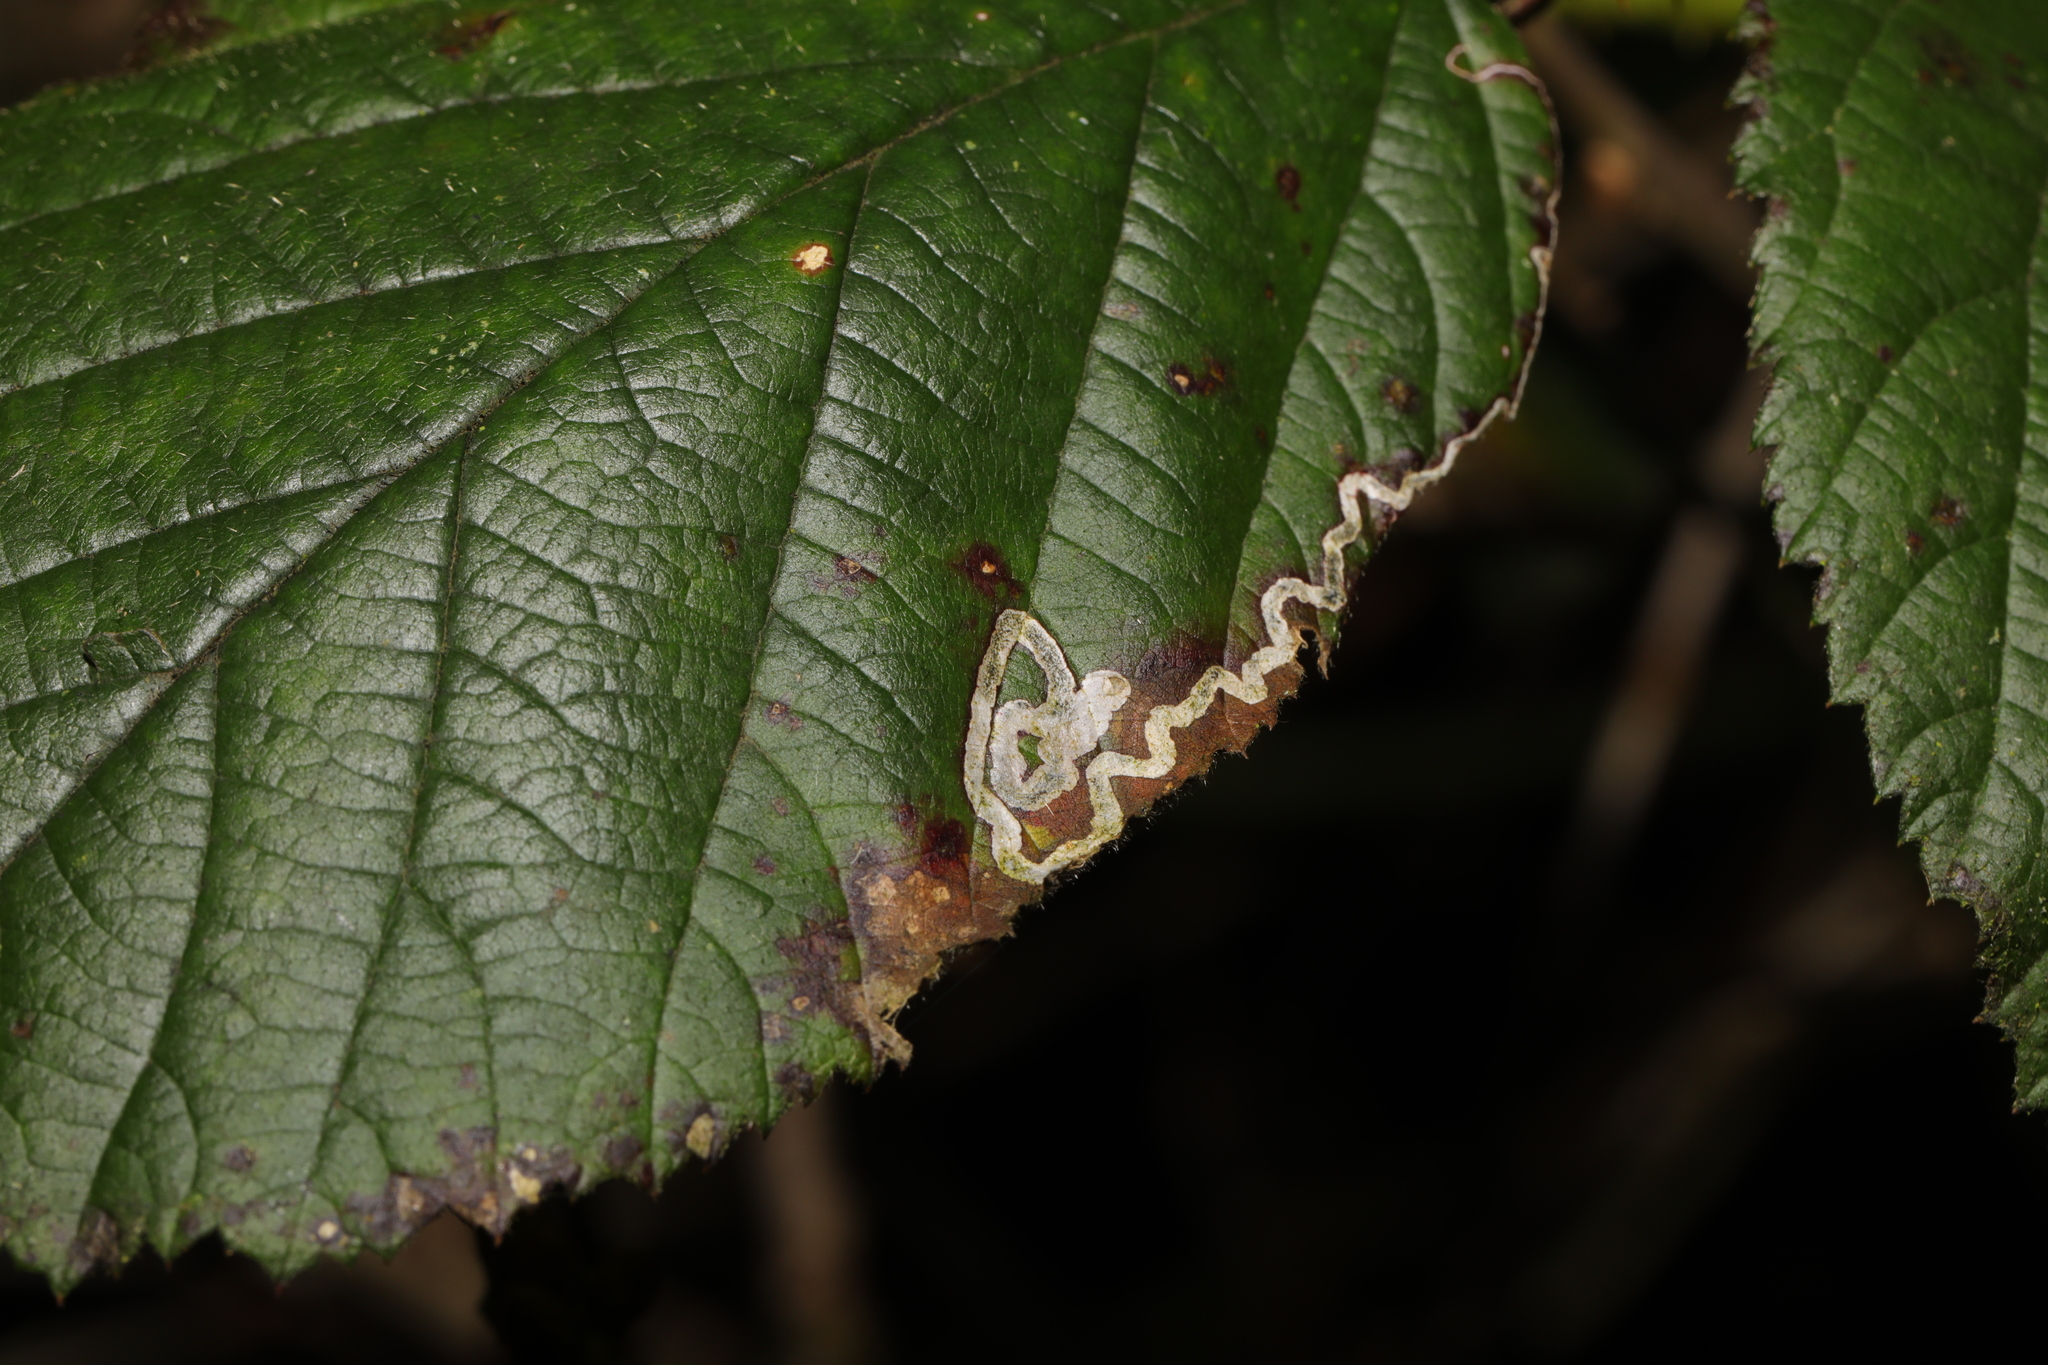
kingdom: Animalia
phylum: Arthropoda
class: Insecta
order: Lepidoptera
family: Nepticulidae
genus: Stigmella
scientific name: Stigmella aurella
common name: Golden pigmy
